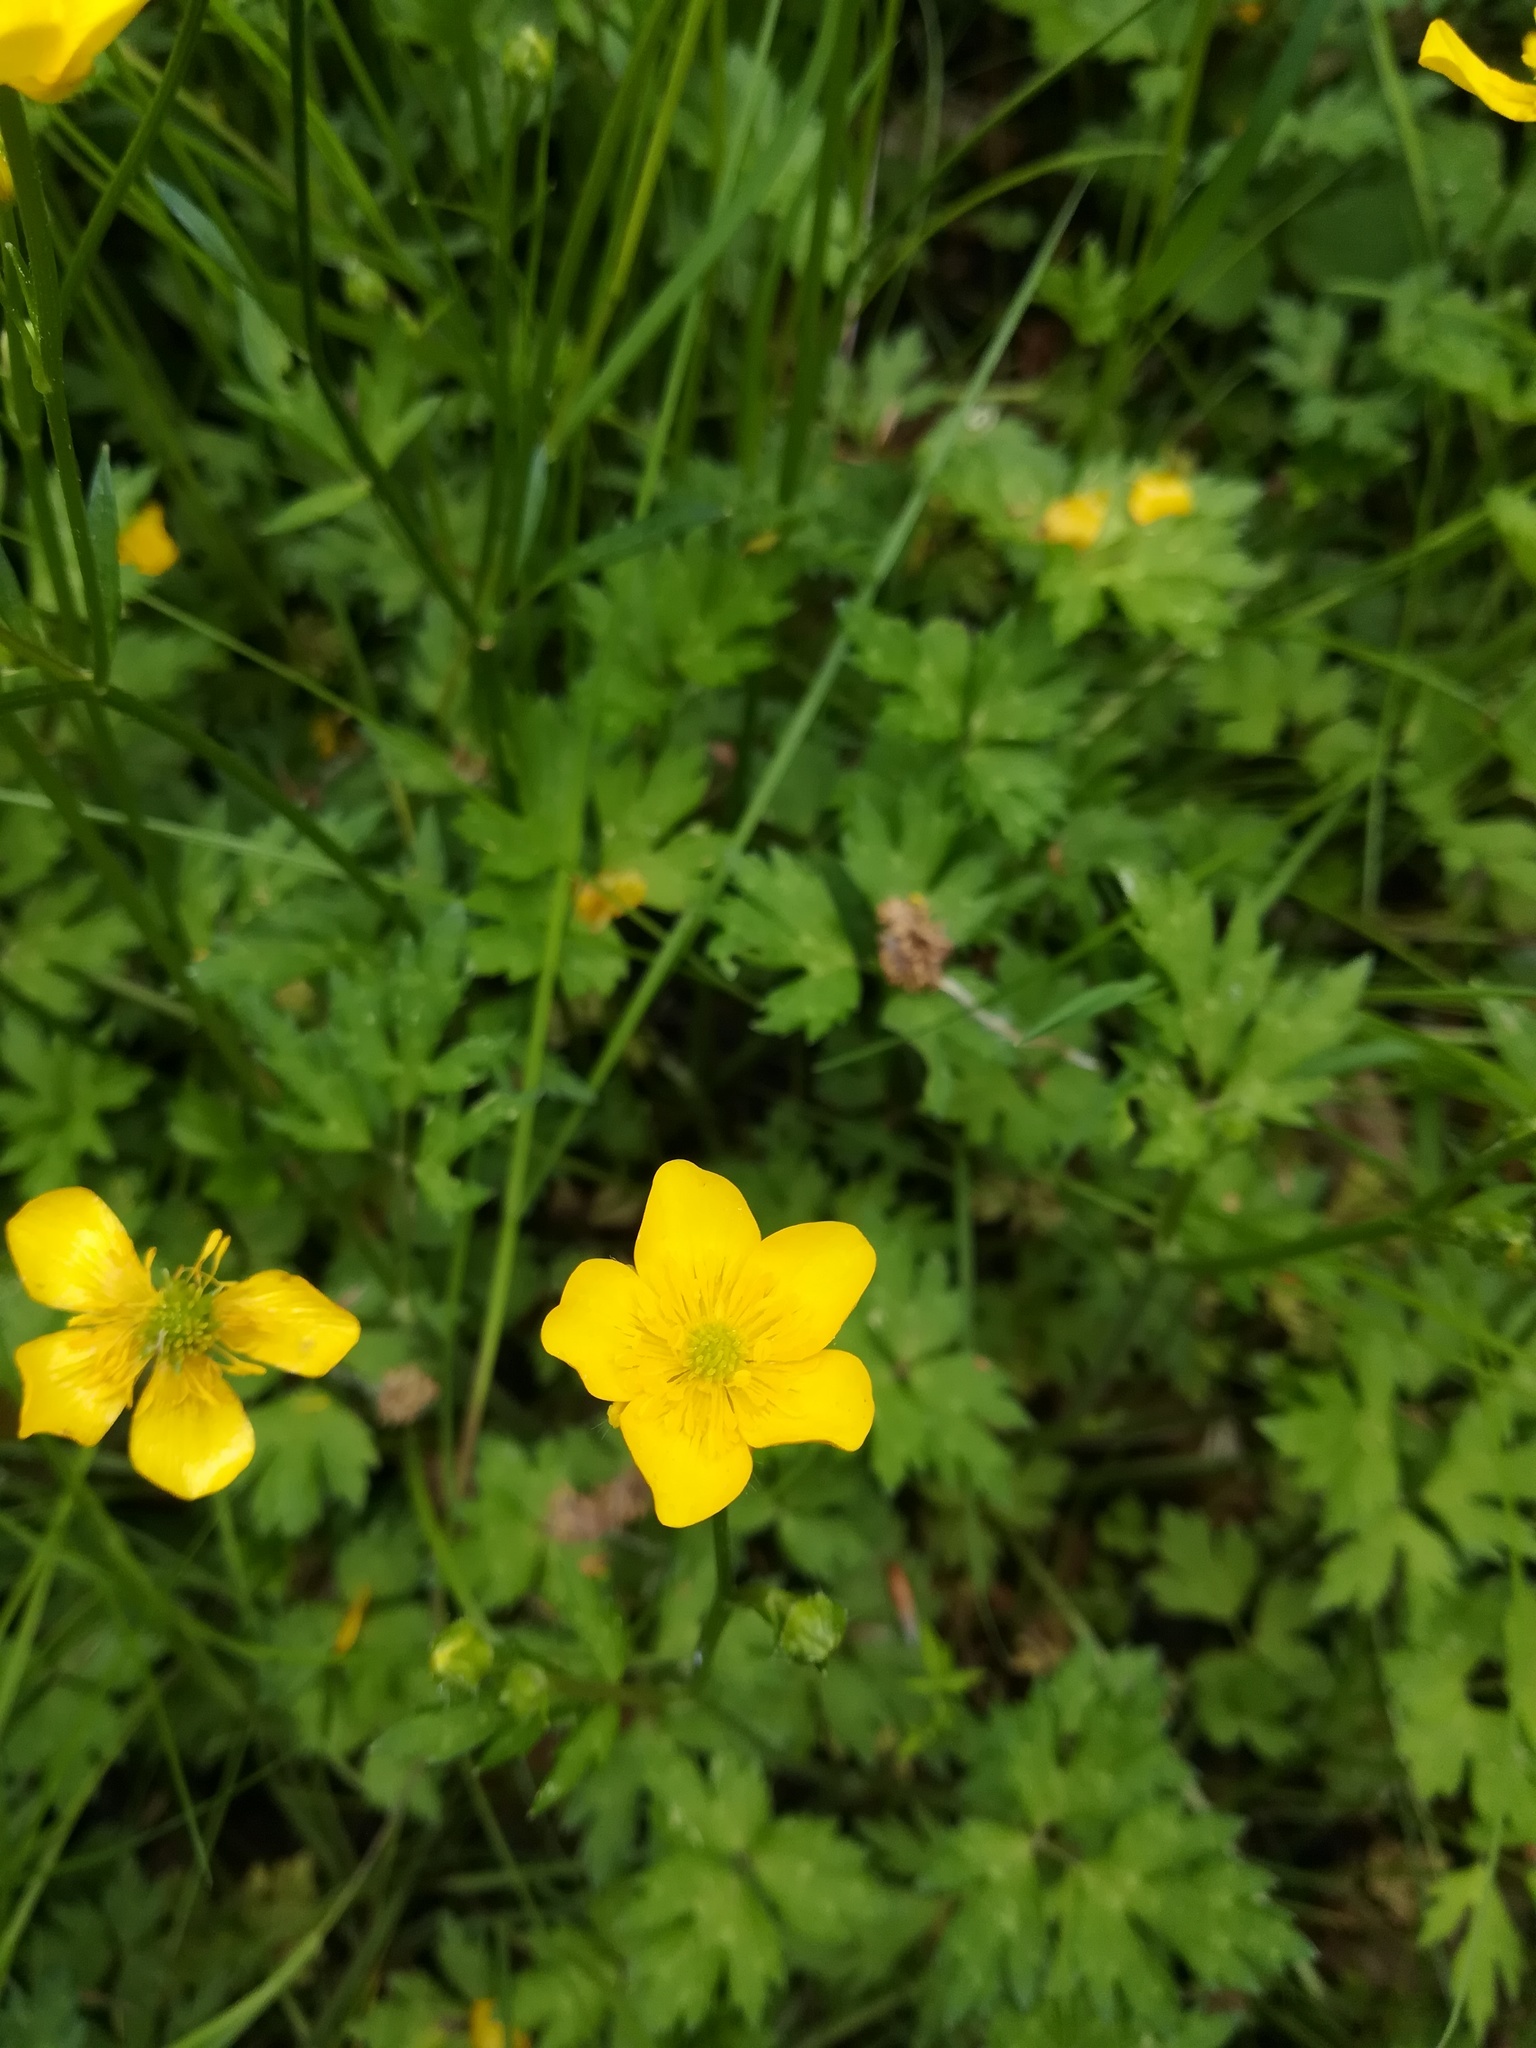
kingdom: Plantae
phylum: Tracheophyta
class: Magnoliopsida
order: Ranunculales
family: Ranunculaceae
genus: Ranunculus
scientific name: Ranunculus repens
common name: Creeping buttercup
